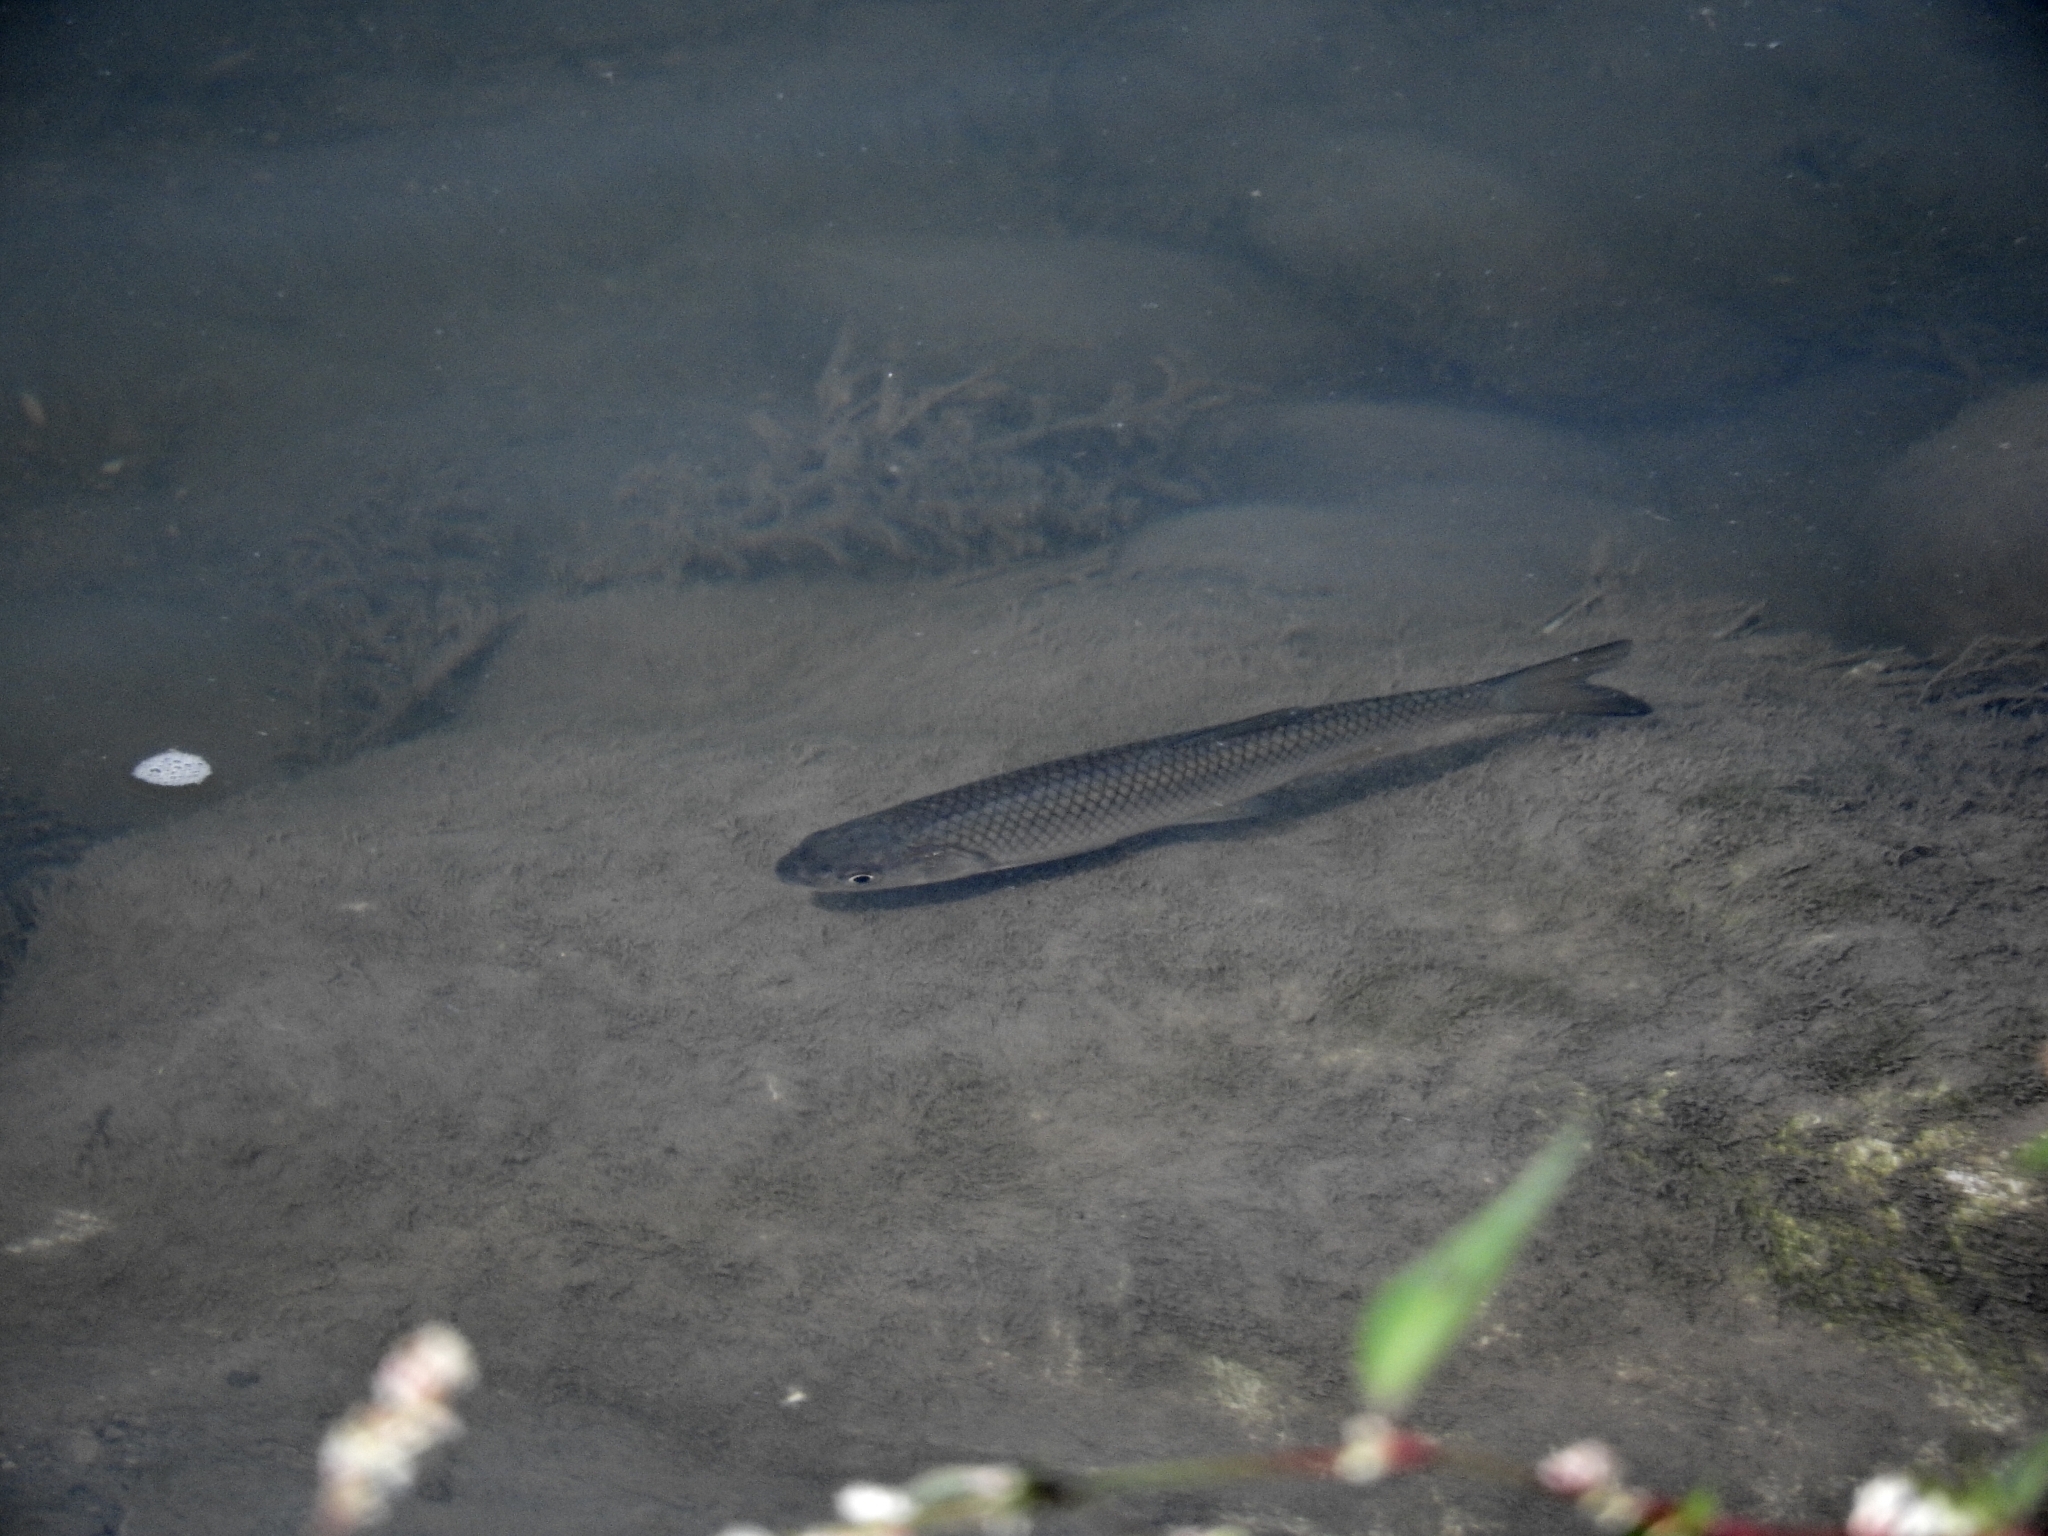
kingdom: Animalia
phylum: Chordata
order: Cypriniformes
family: Cyprinidae
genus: Rutilus
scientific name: Rutilus kutum
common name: Kutum
